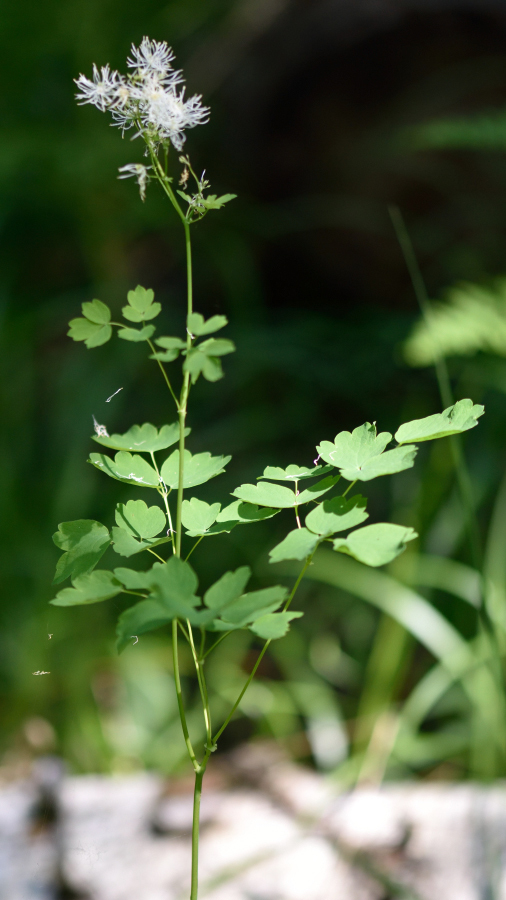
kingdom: Plantae
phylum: Tracheophyta
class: Magnoliopsida
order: Ranunculales
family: Ranunculaceae
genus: Thalictrum
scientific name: Thalictrum aquilegiifolium
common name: French meadow-rue
